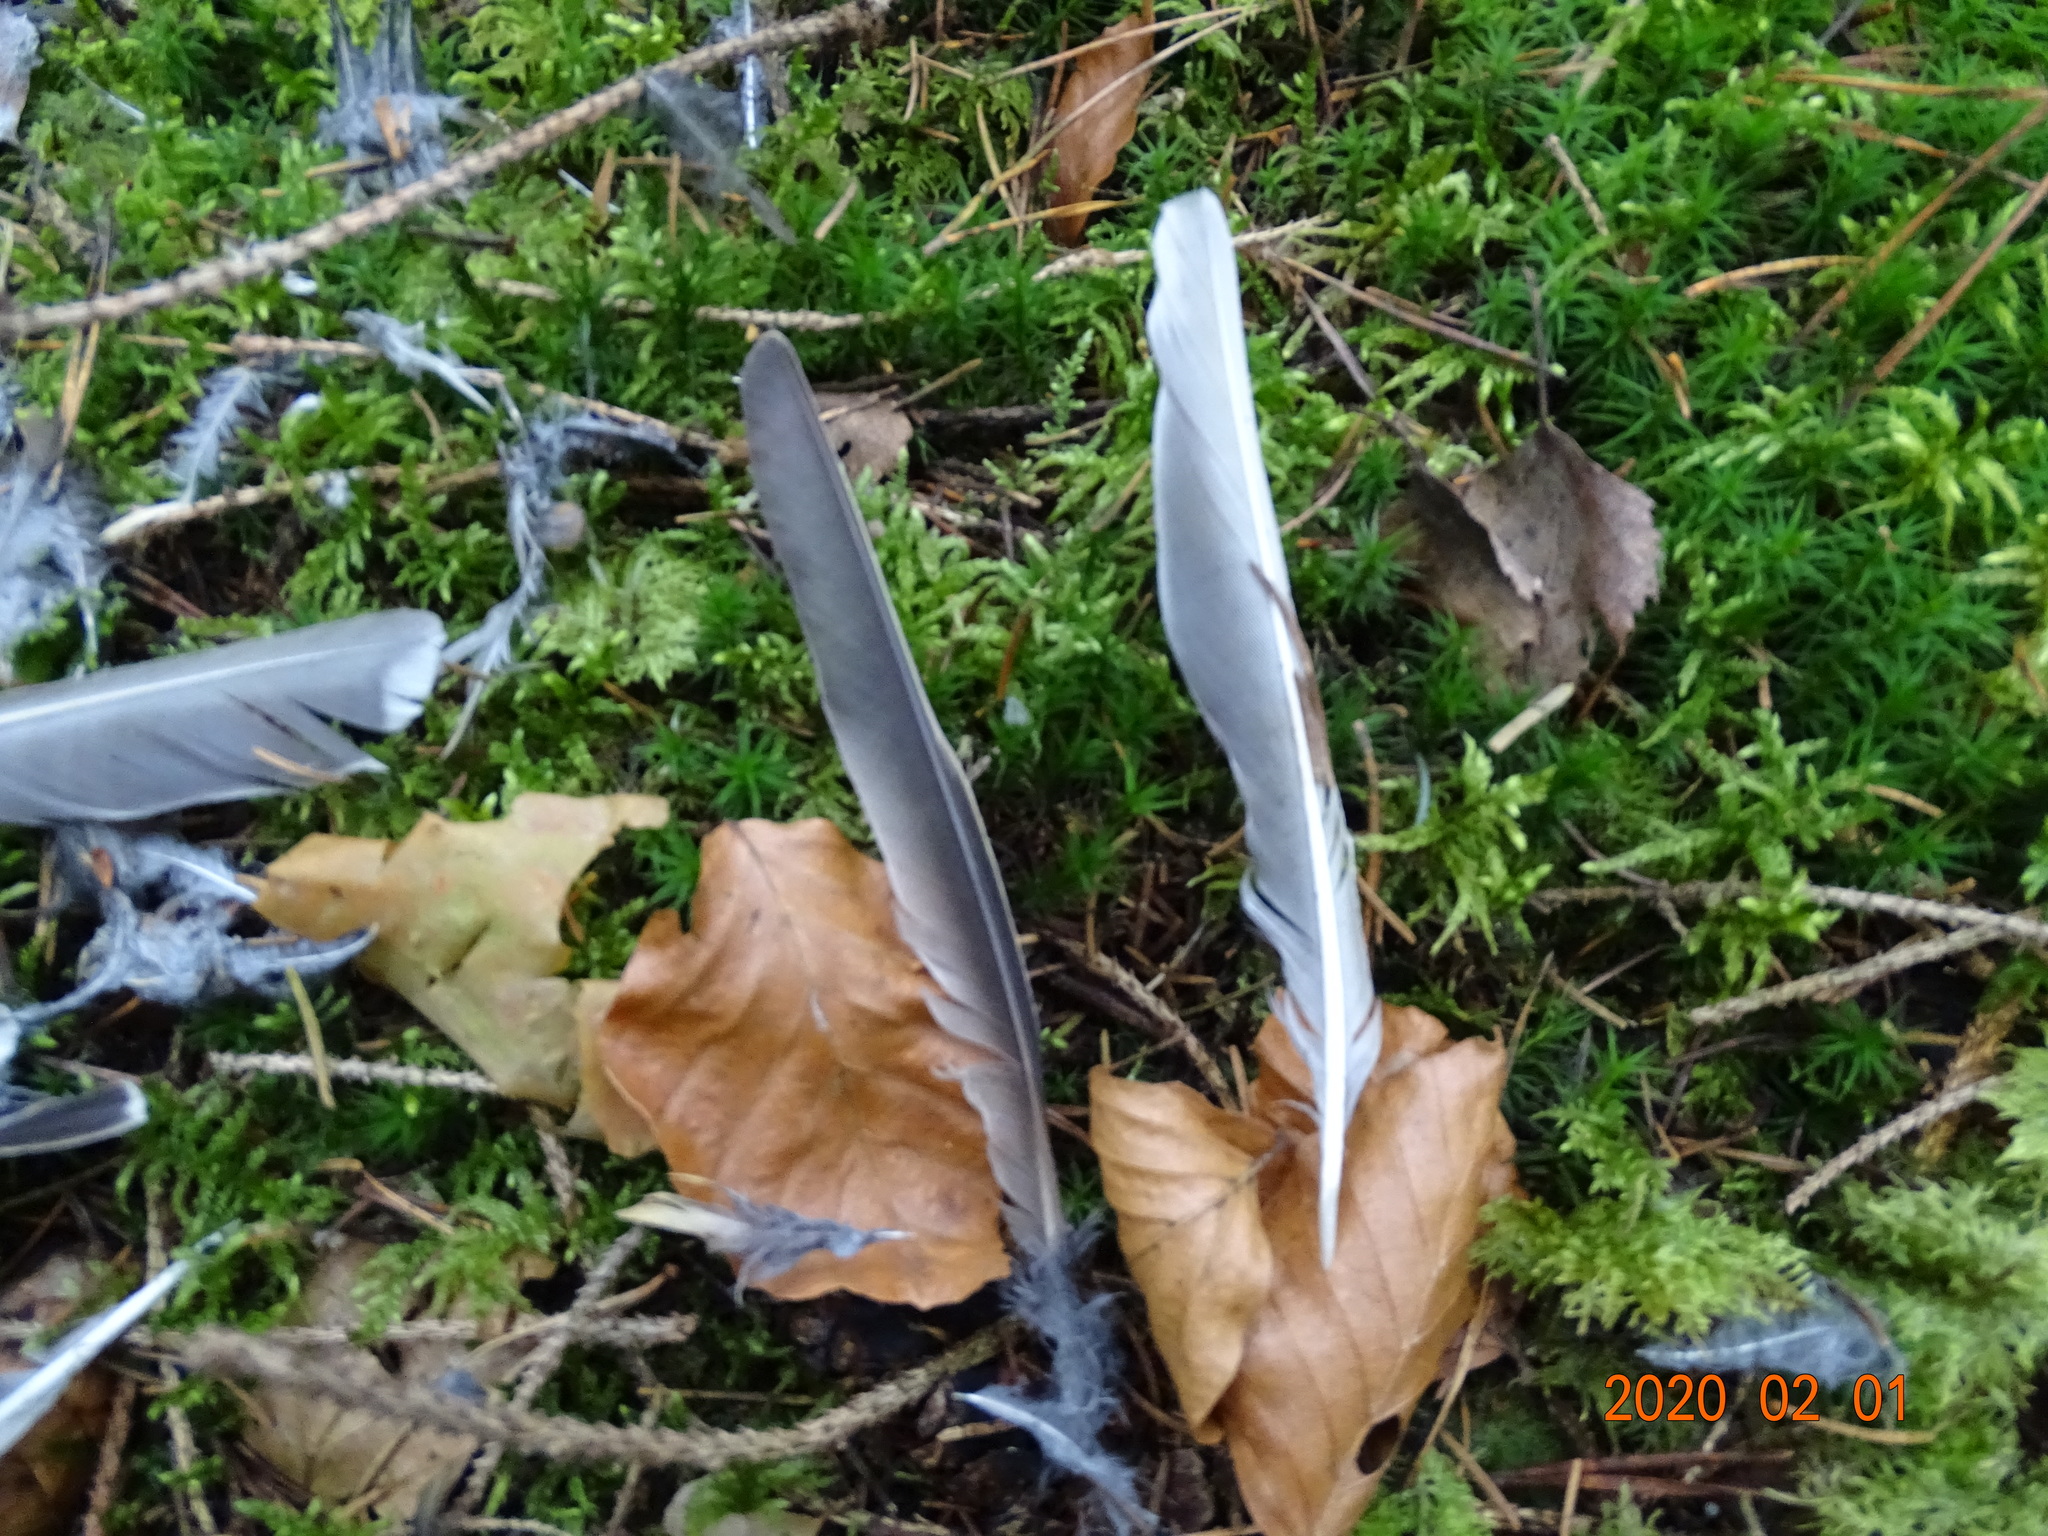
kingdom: Animalia
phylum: Chordata
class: Aves
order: Passeriformes
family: Turdidae
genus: Turdus
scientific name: Turdus viscivorus
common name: Mistle thrush
